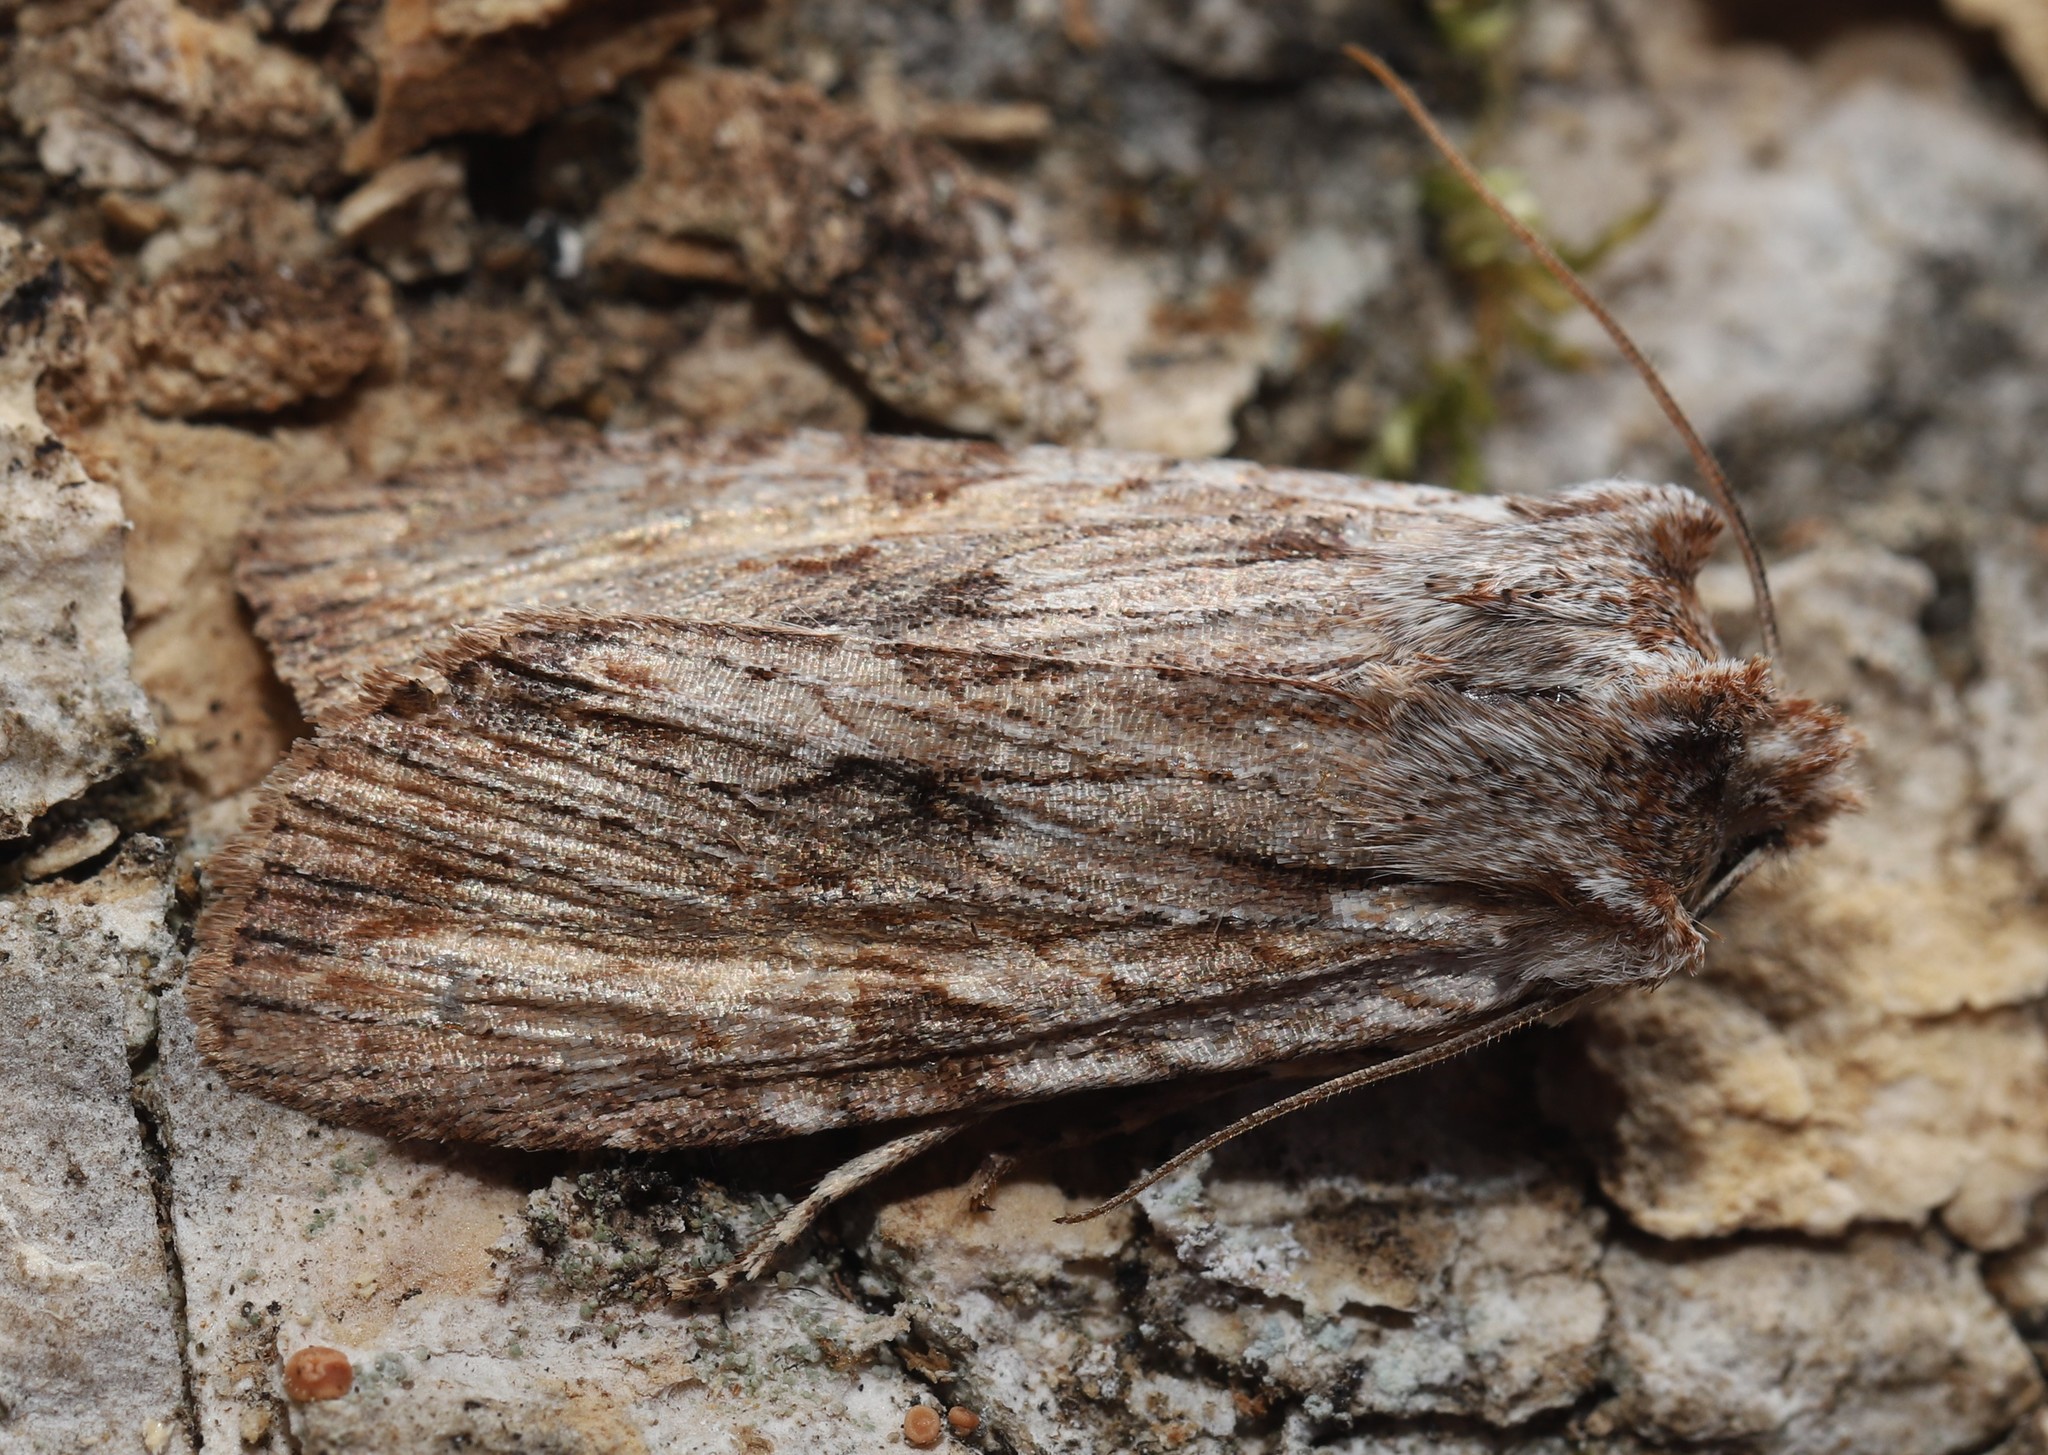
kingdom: Animalia
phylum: Arthropoda
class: Insecta
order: Lepidoptera
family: Noctuidae
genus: Lithophane
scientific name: Lithophane petulca
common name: Wanton pinion
